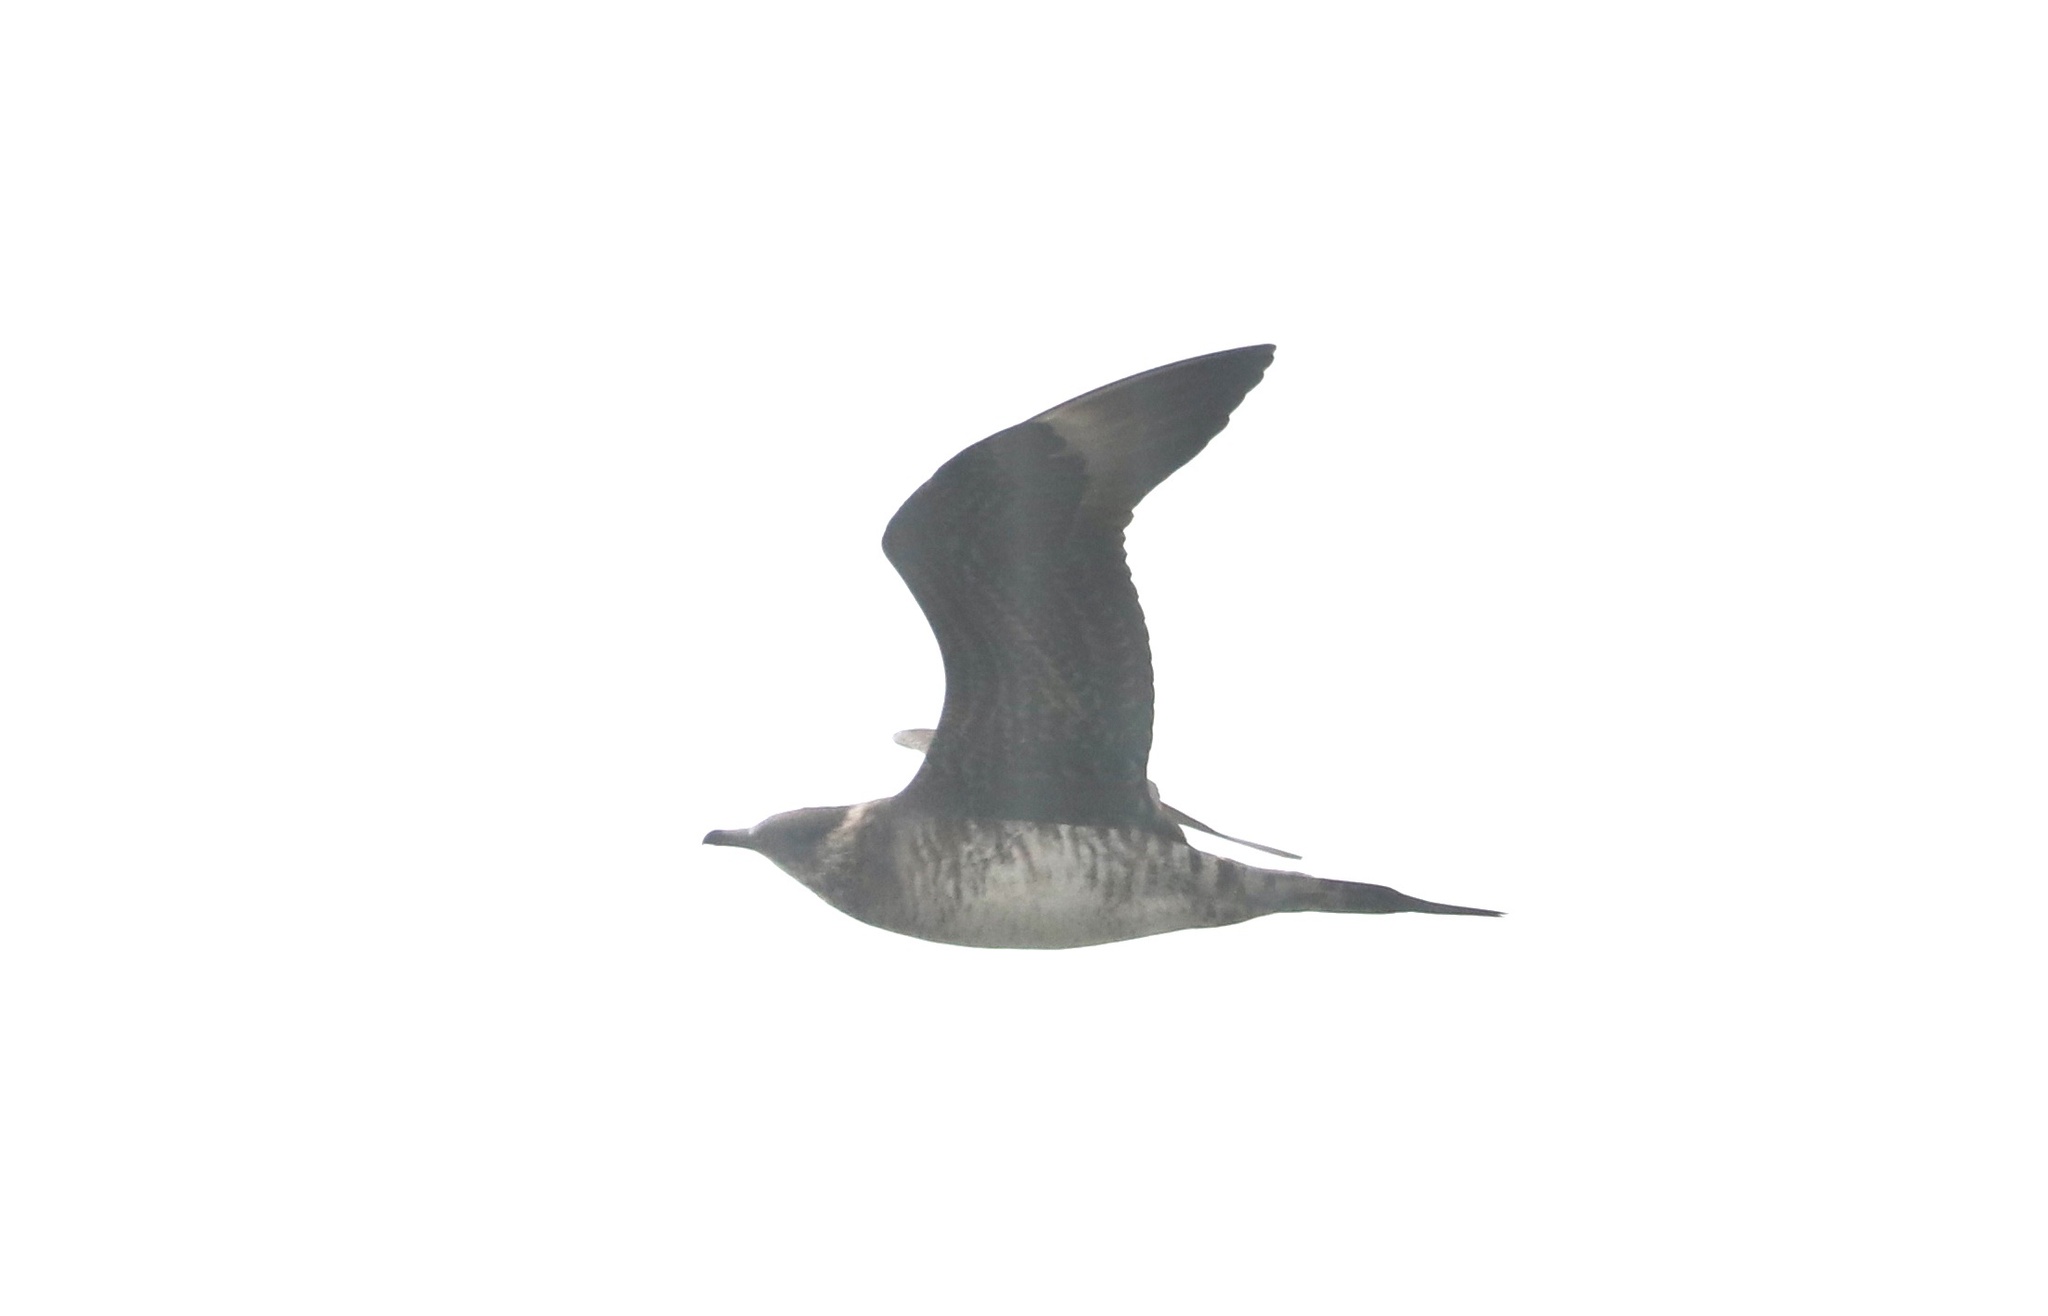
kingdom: Animalia
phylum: Chordata
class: Aves
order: Charadriiformes
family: Stercorariidae
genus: Stercorarius
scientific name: Stercorarius parasiticus
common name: Parasitic jaeger
